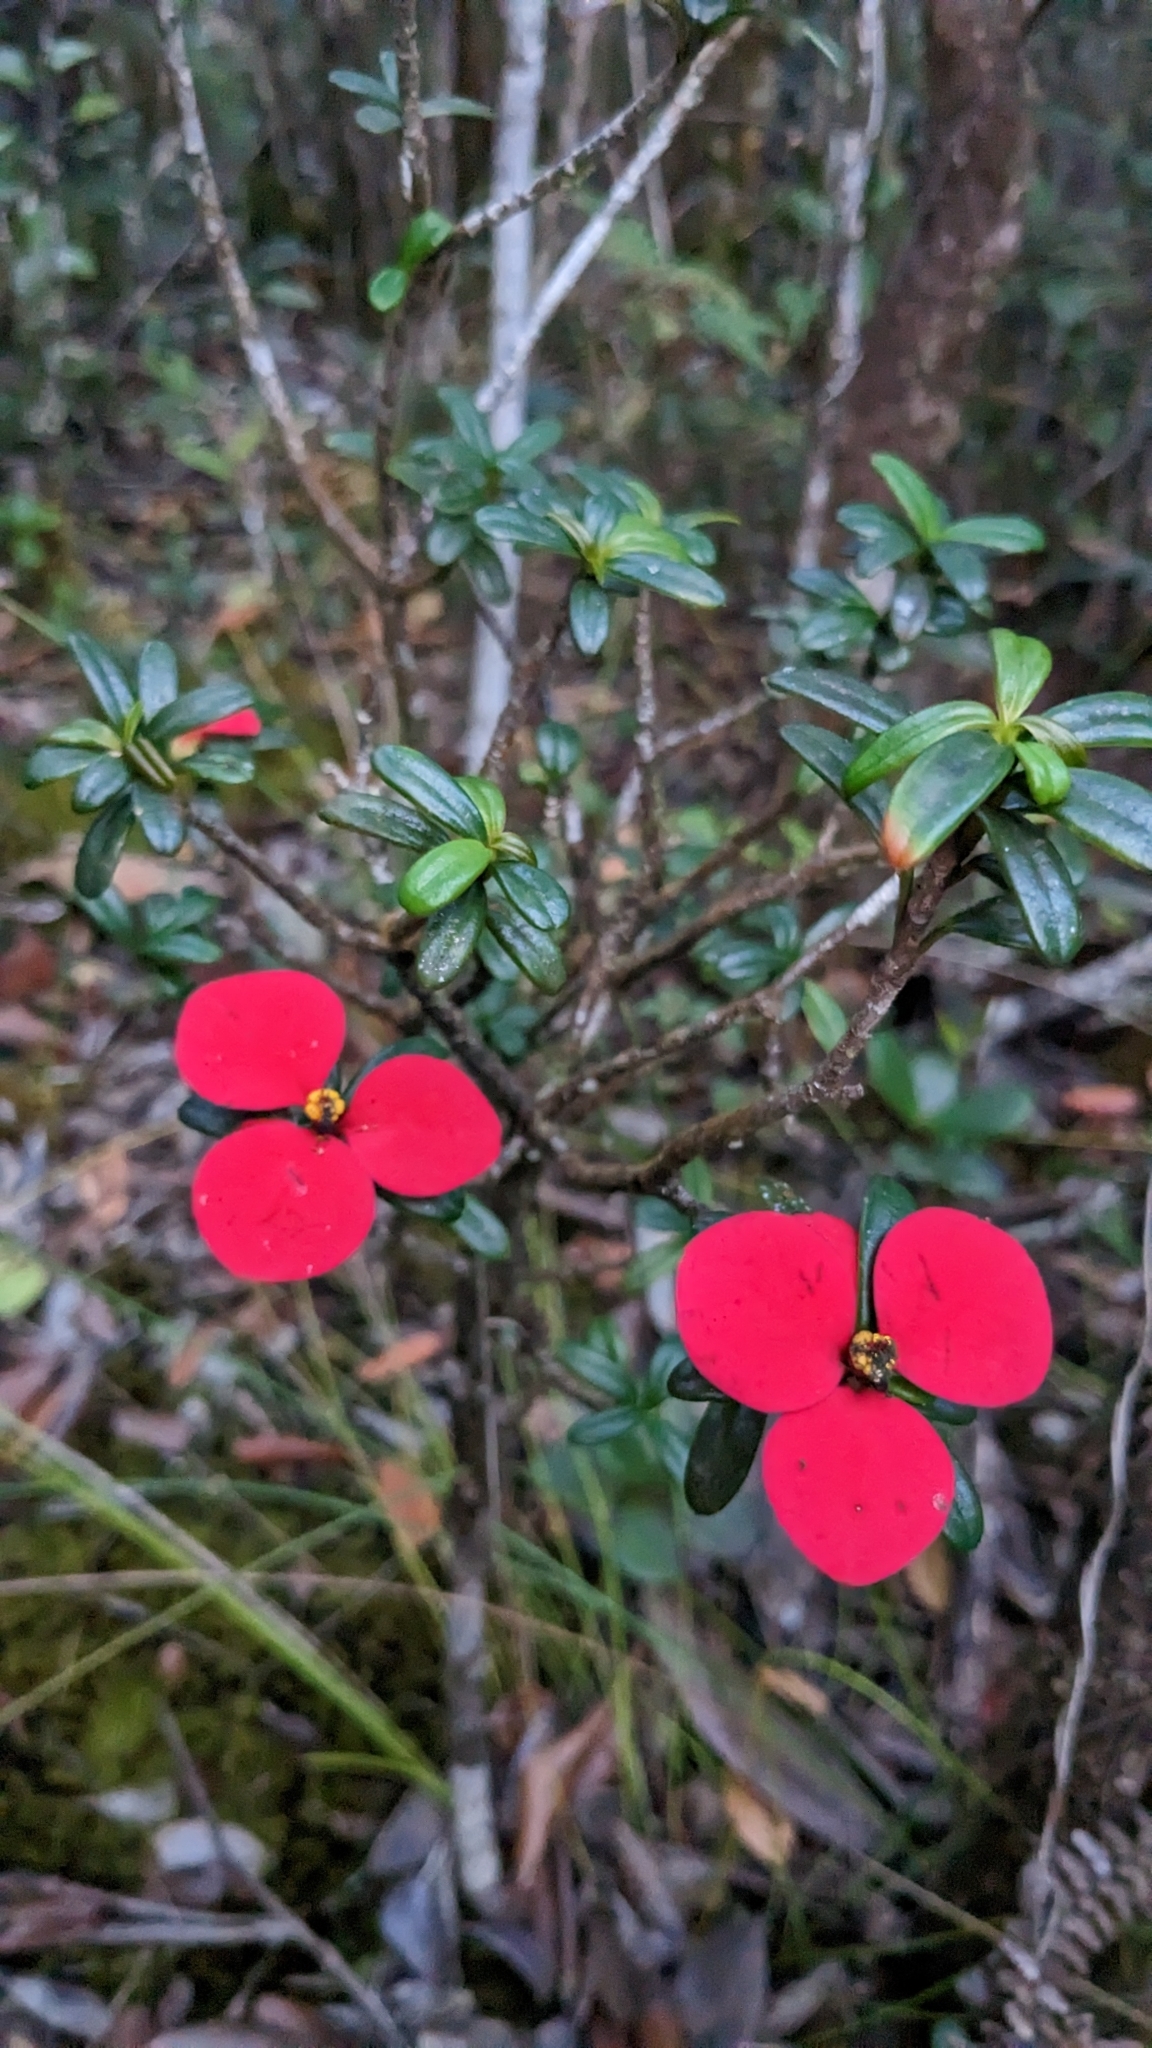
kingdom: Plantae
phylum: Tracheophyta
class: Magnoliopsida
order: Malpighiales
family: Euphorbiaceae
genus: Euphorbia
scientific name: Euphorbia munizii
